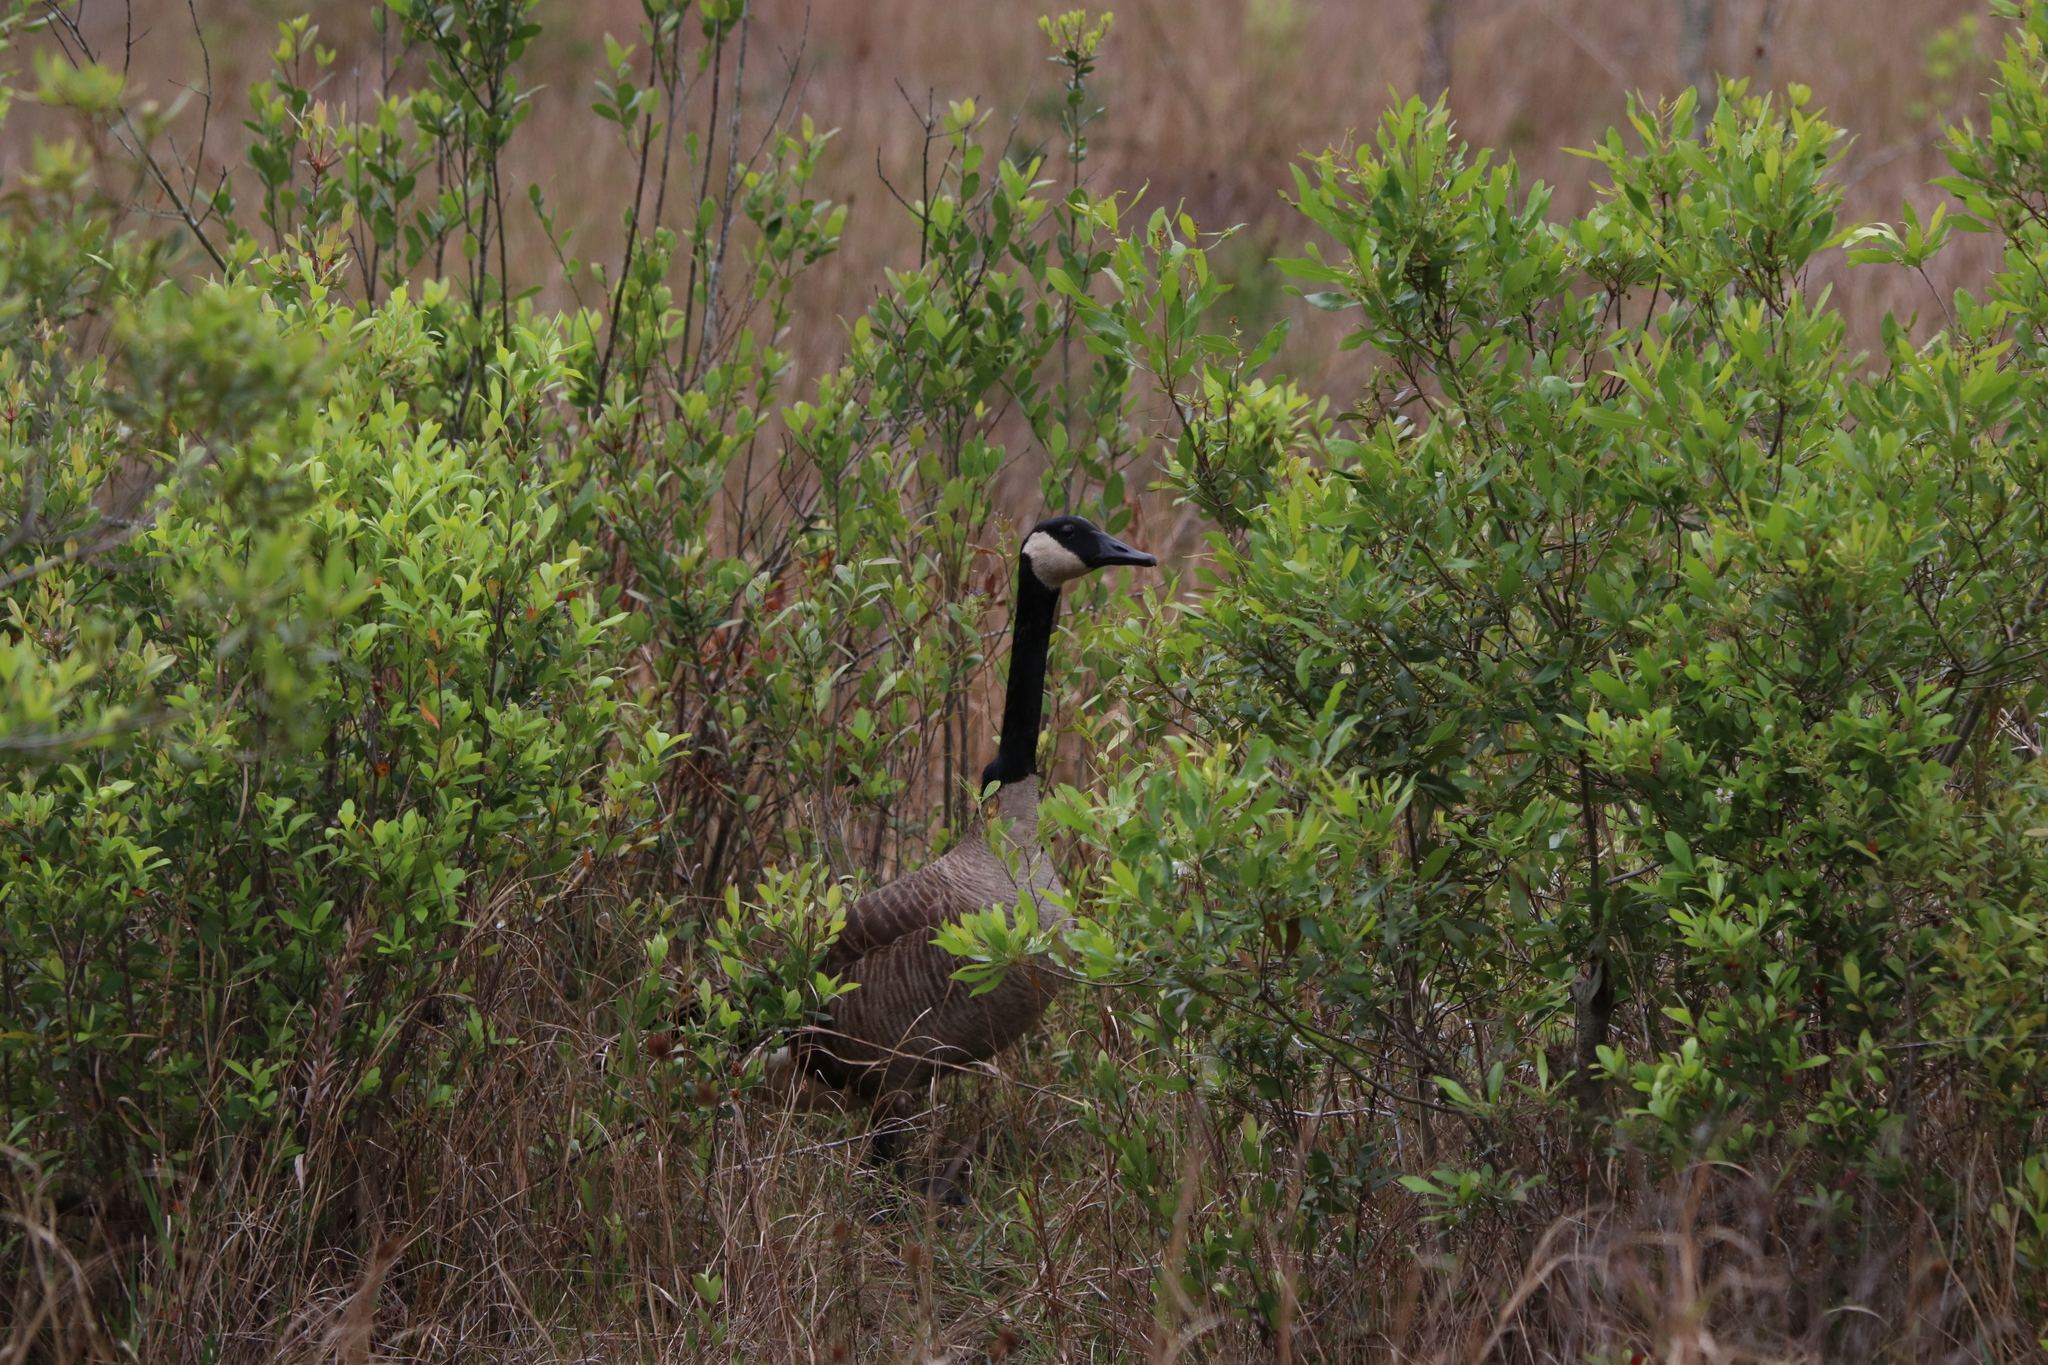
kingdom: Animalia
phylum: Chordata
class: Aves
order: Anseriformes
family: Anatidae
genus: Branta
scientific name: Branta canadensis
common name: Canada goose
